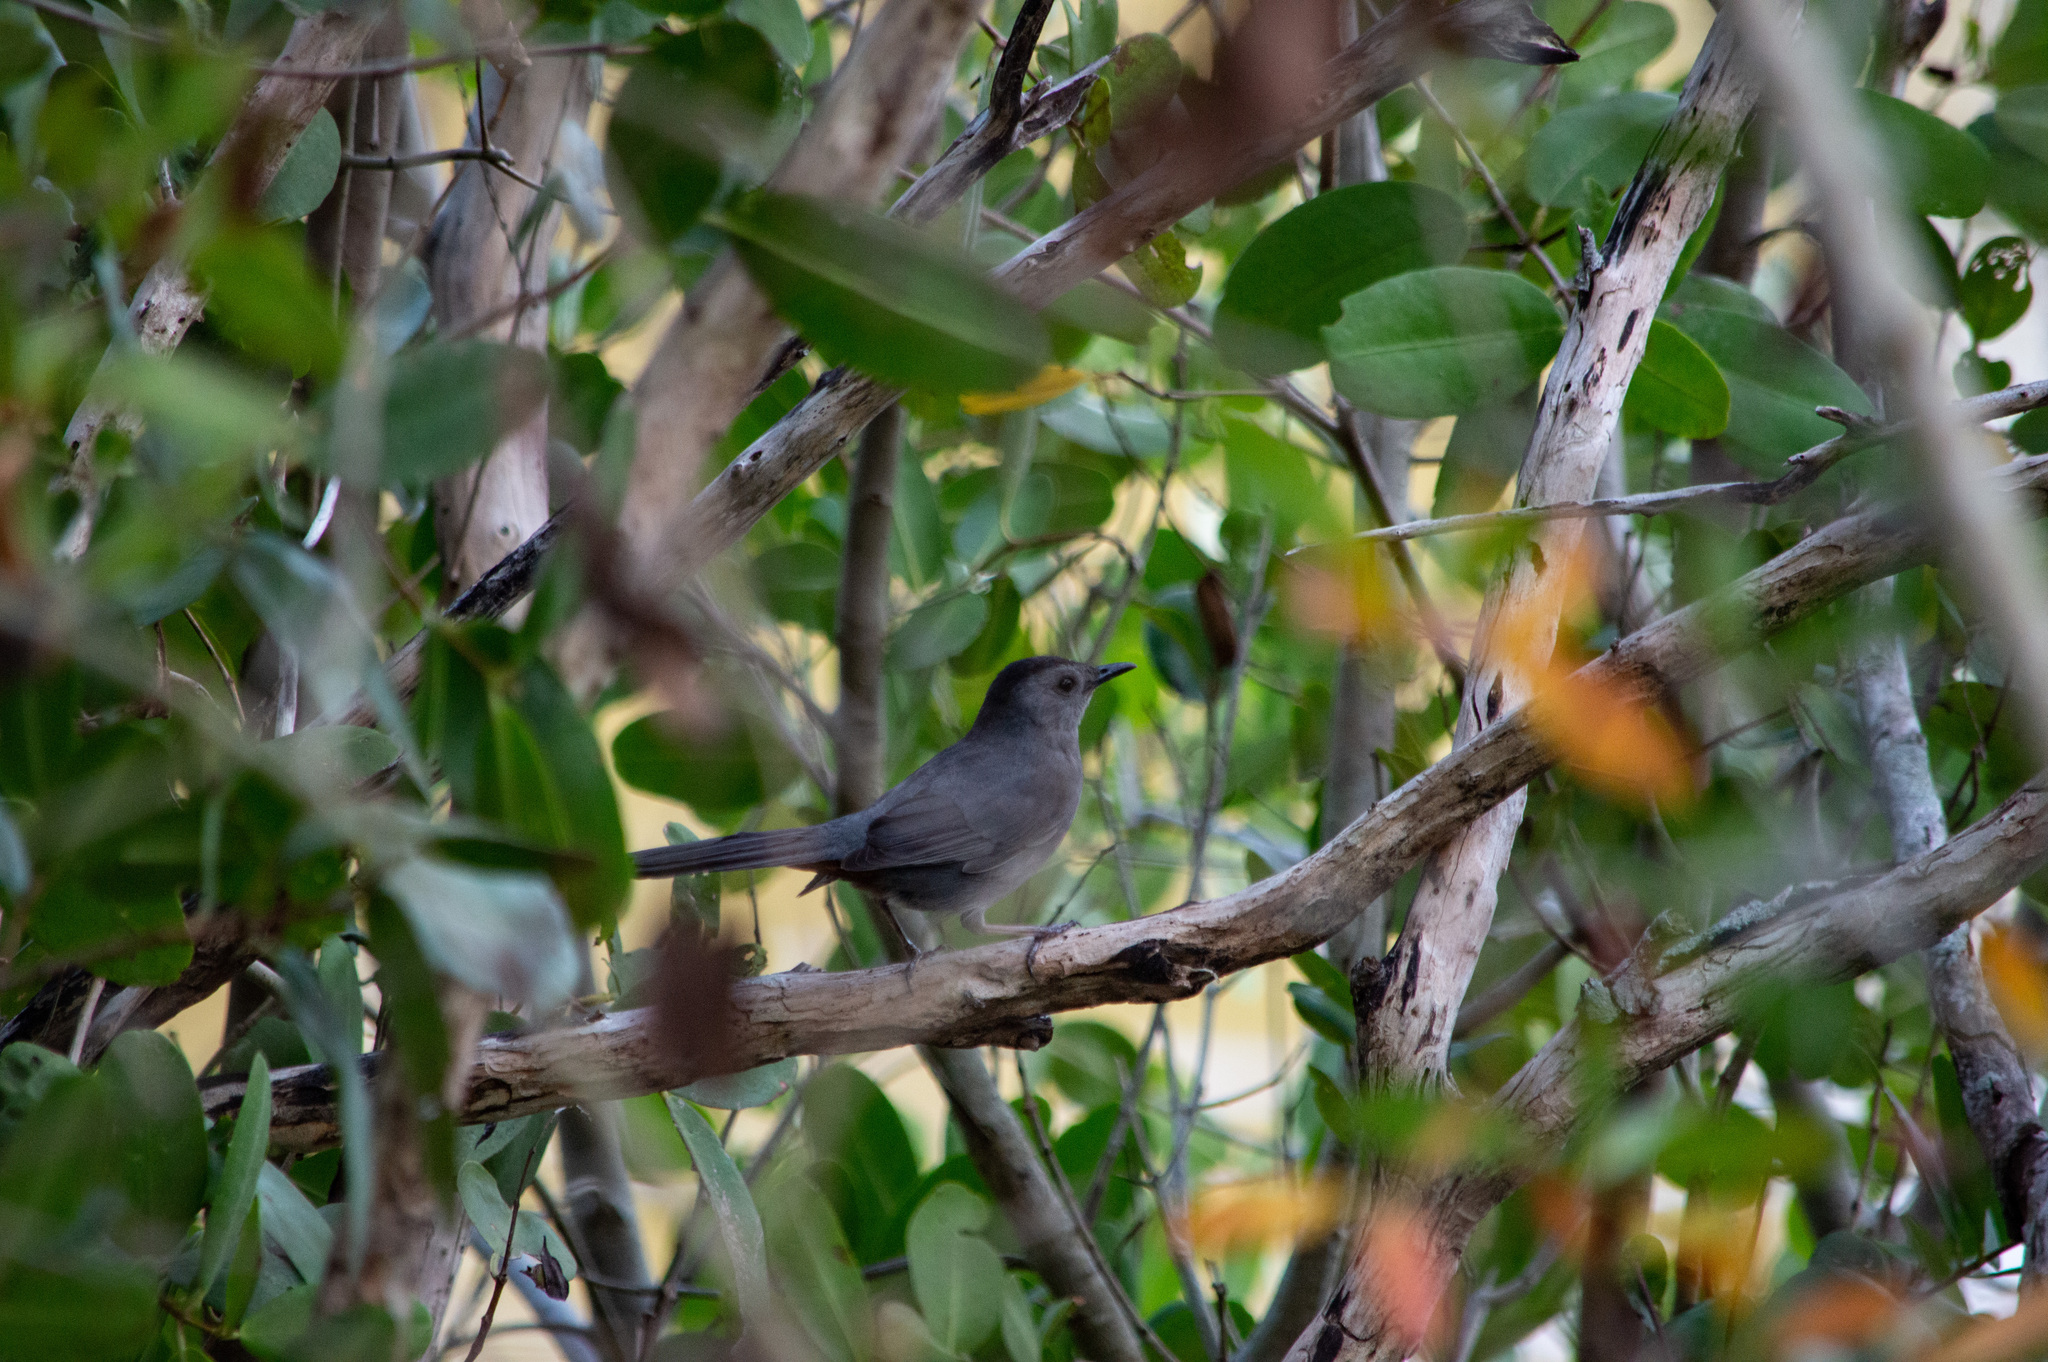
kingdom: Animalia
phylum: Chordata
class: Aves
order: Passeriformes
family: Mimidae
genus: Dumetella
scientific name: Dumetella carolinensis
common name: Gray catbird
